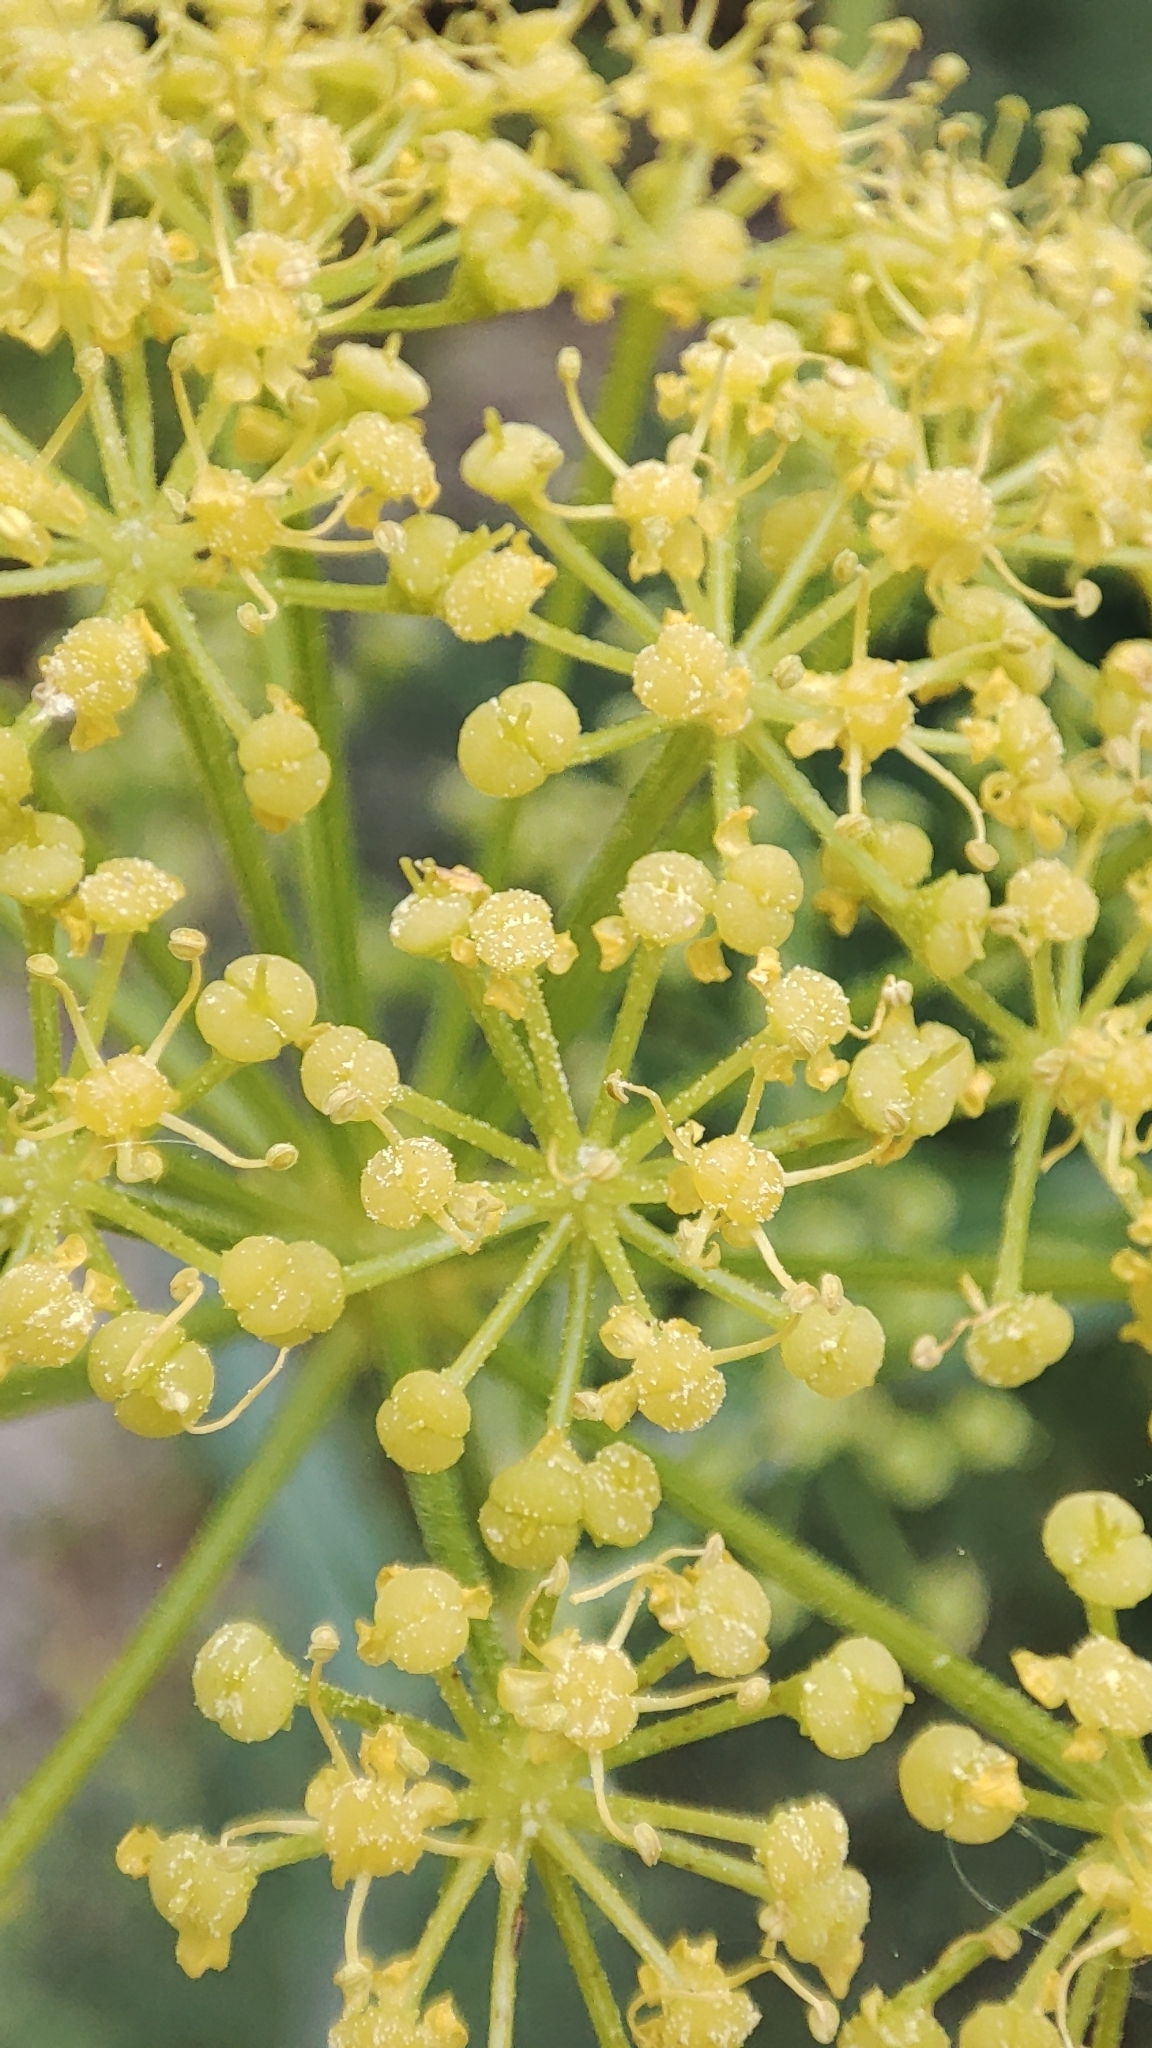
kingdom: Plantae
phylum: Tracheophyta
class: Magnoliopsida
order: Apiales
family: Apiaceae
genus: Foeniculum
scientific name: Foeniculum vulgare
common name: Fennel
